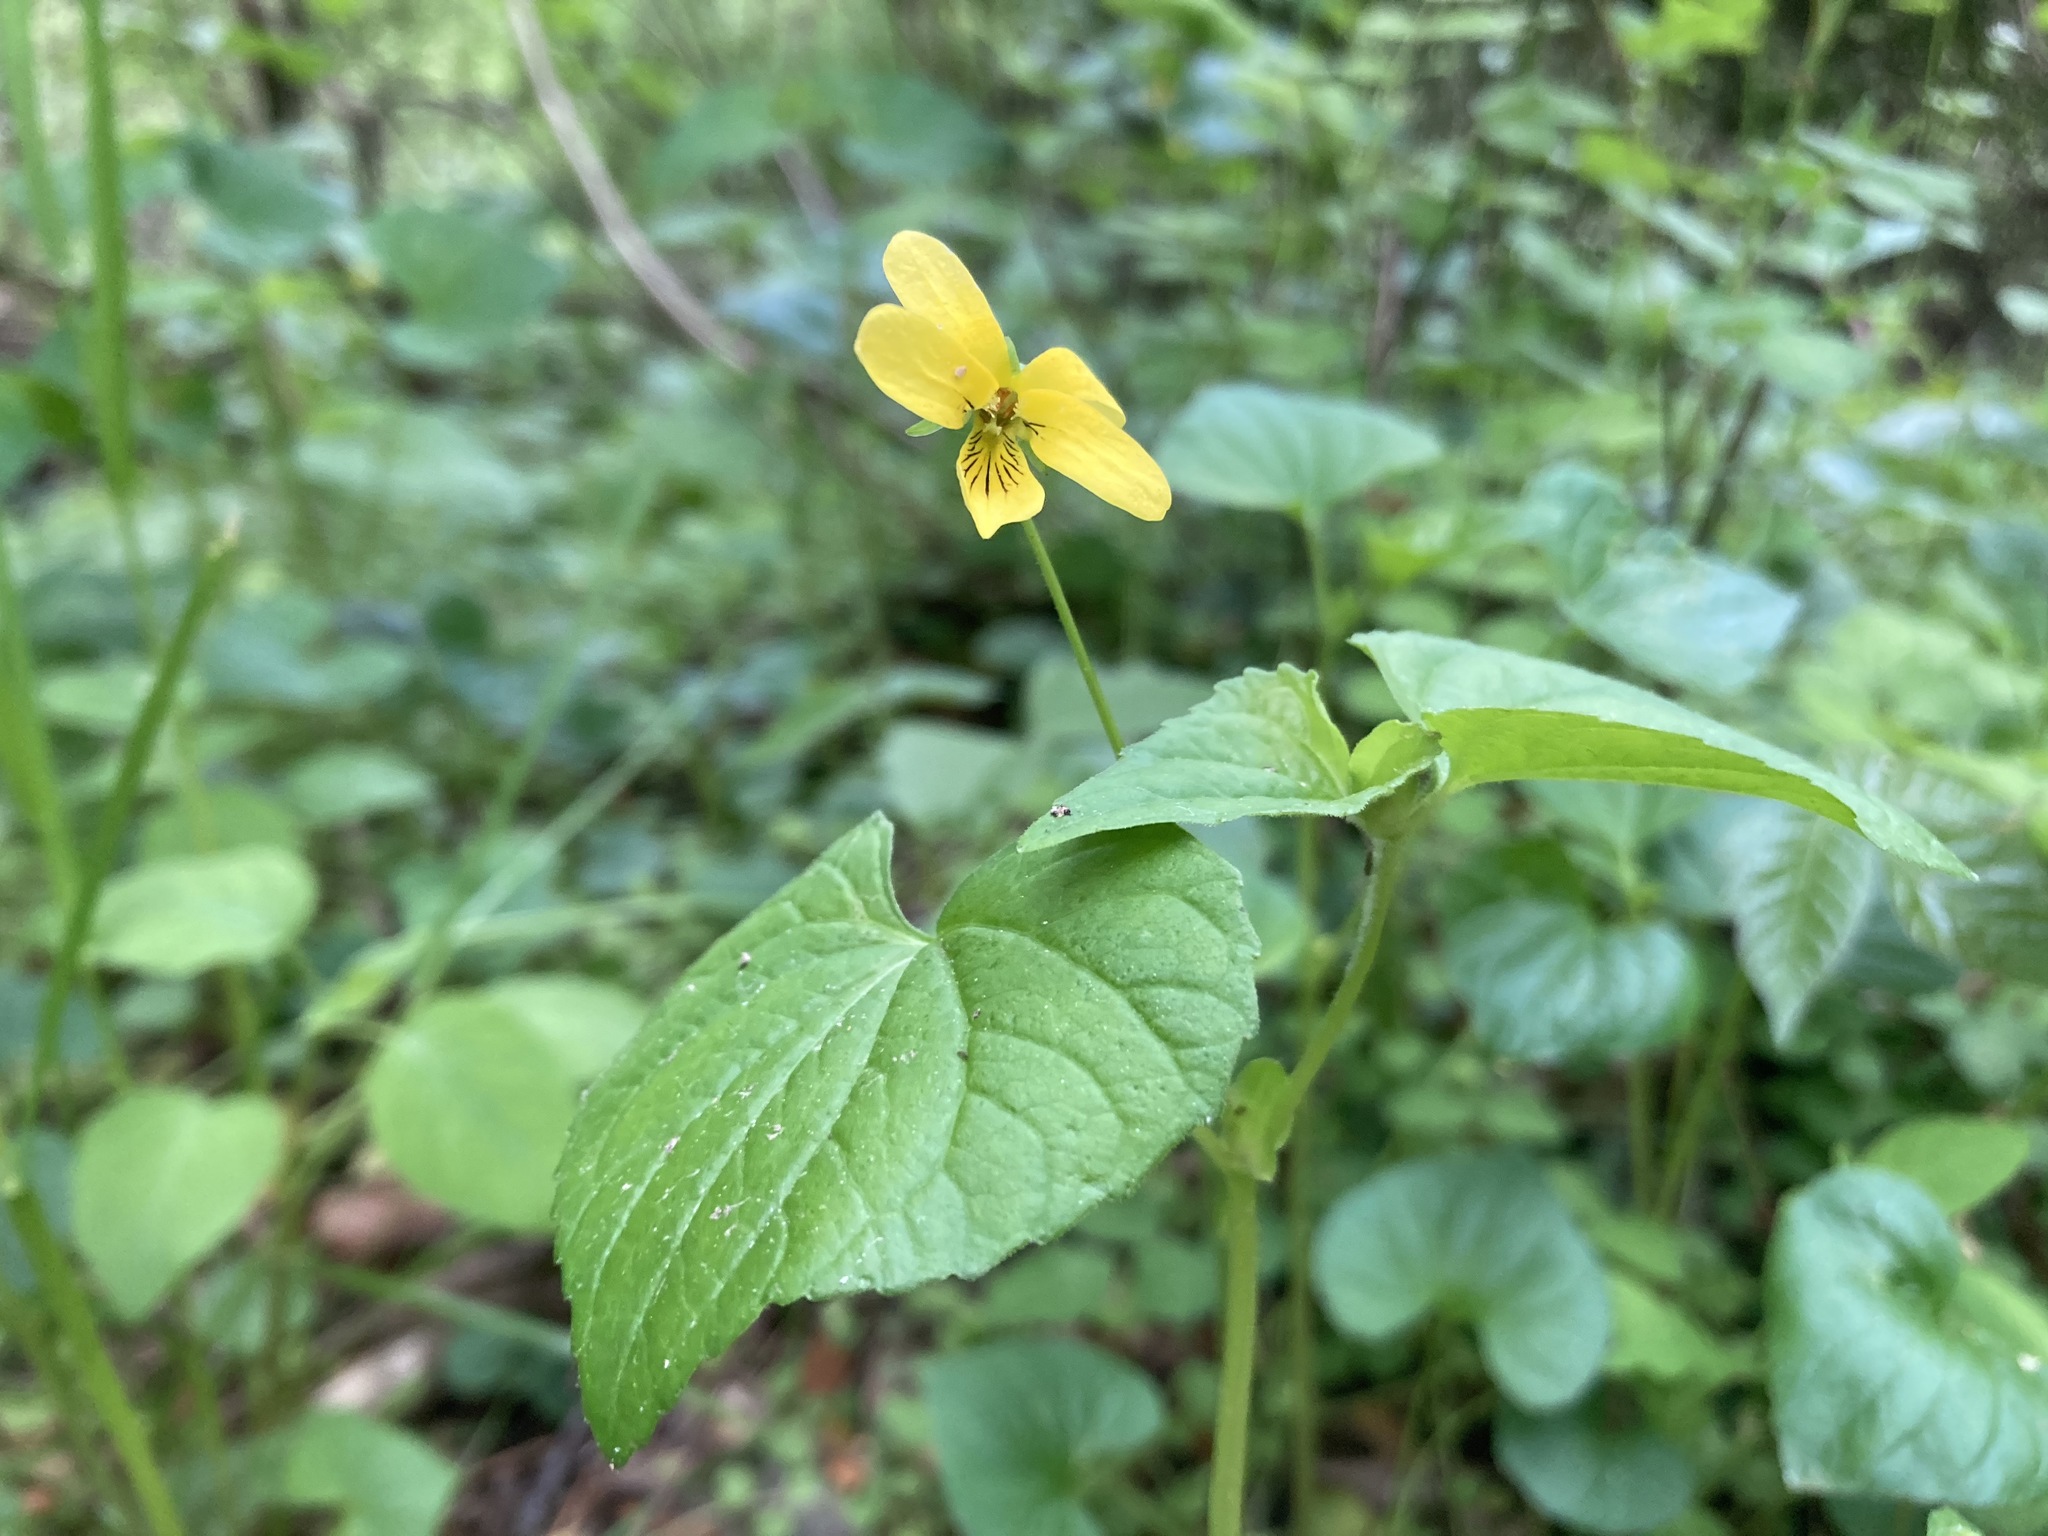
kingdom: Plantae
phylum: Tracheophyta
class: Magnoliopsida
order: Malpighiales
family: Violaceae
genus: Viola
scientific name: Viola eriocarpa
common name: Smooth yellow violet
